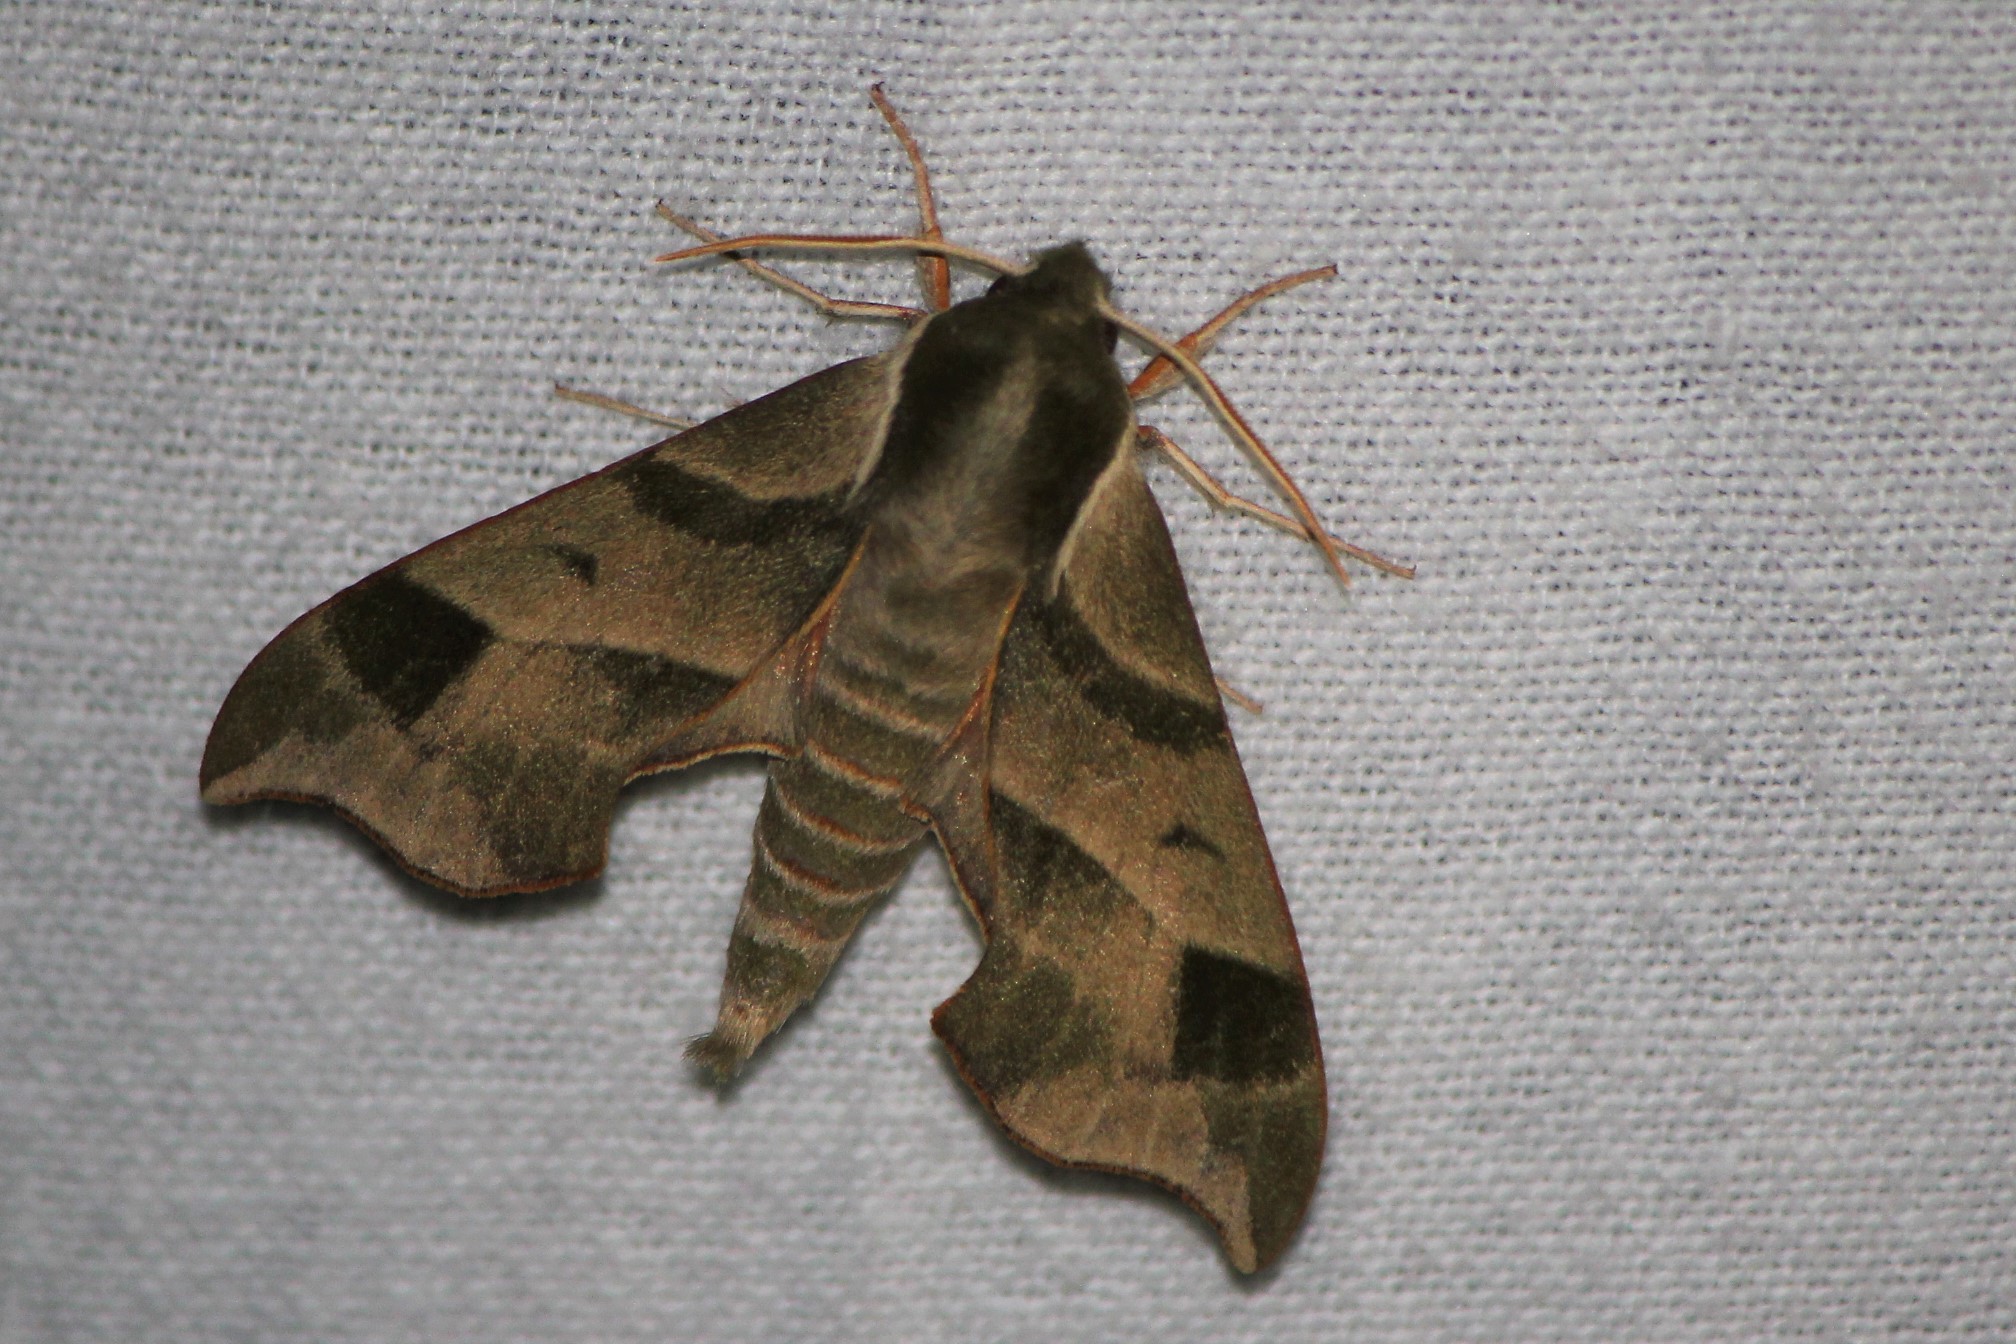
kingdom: Animalia
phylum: Arthropoda
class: Insecta
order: Lepidoptera
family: Sphingidae
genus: Darapsa
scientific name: Darapsa myron
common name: Hog sphinx
